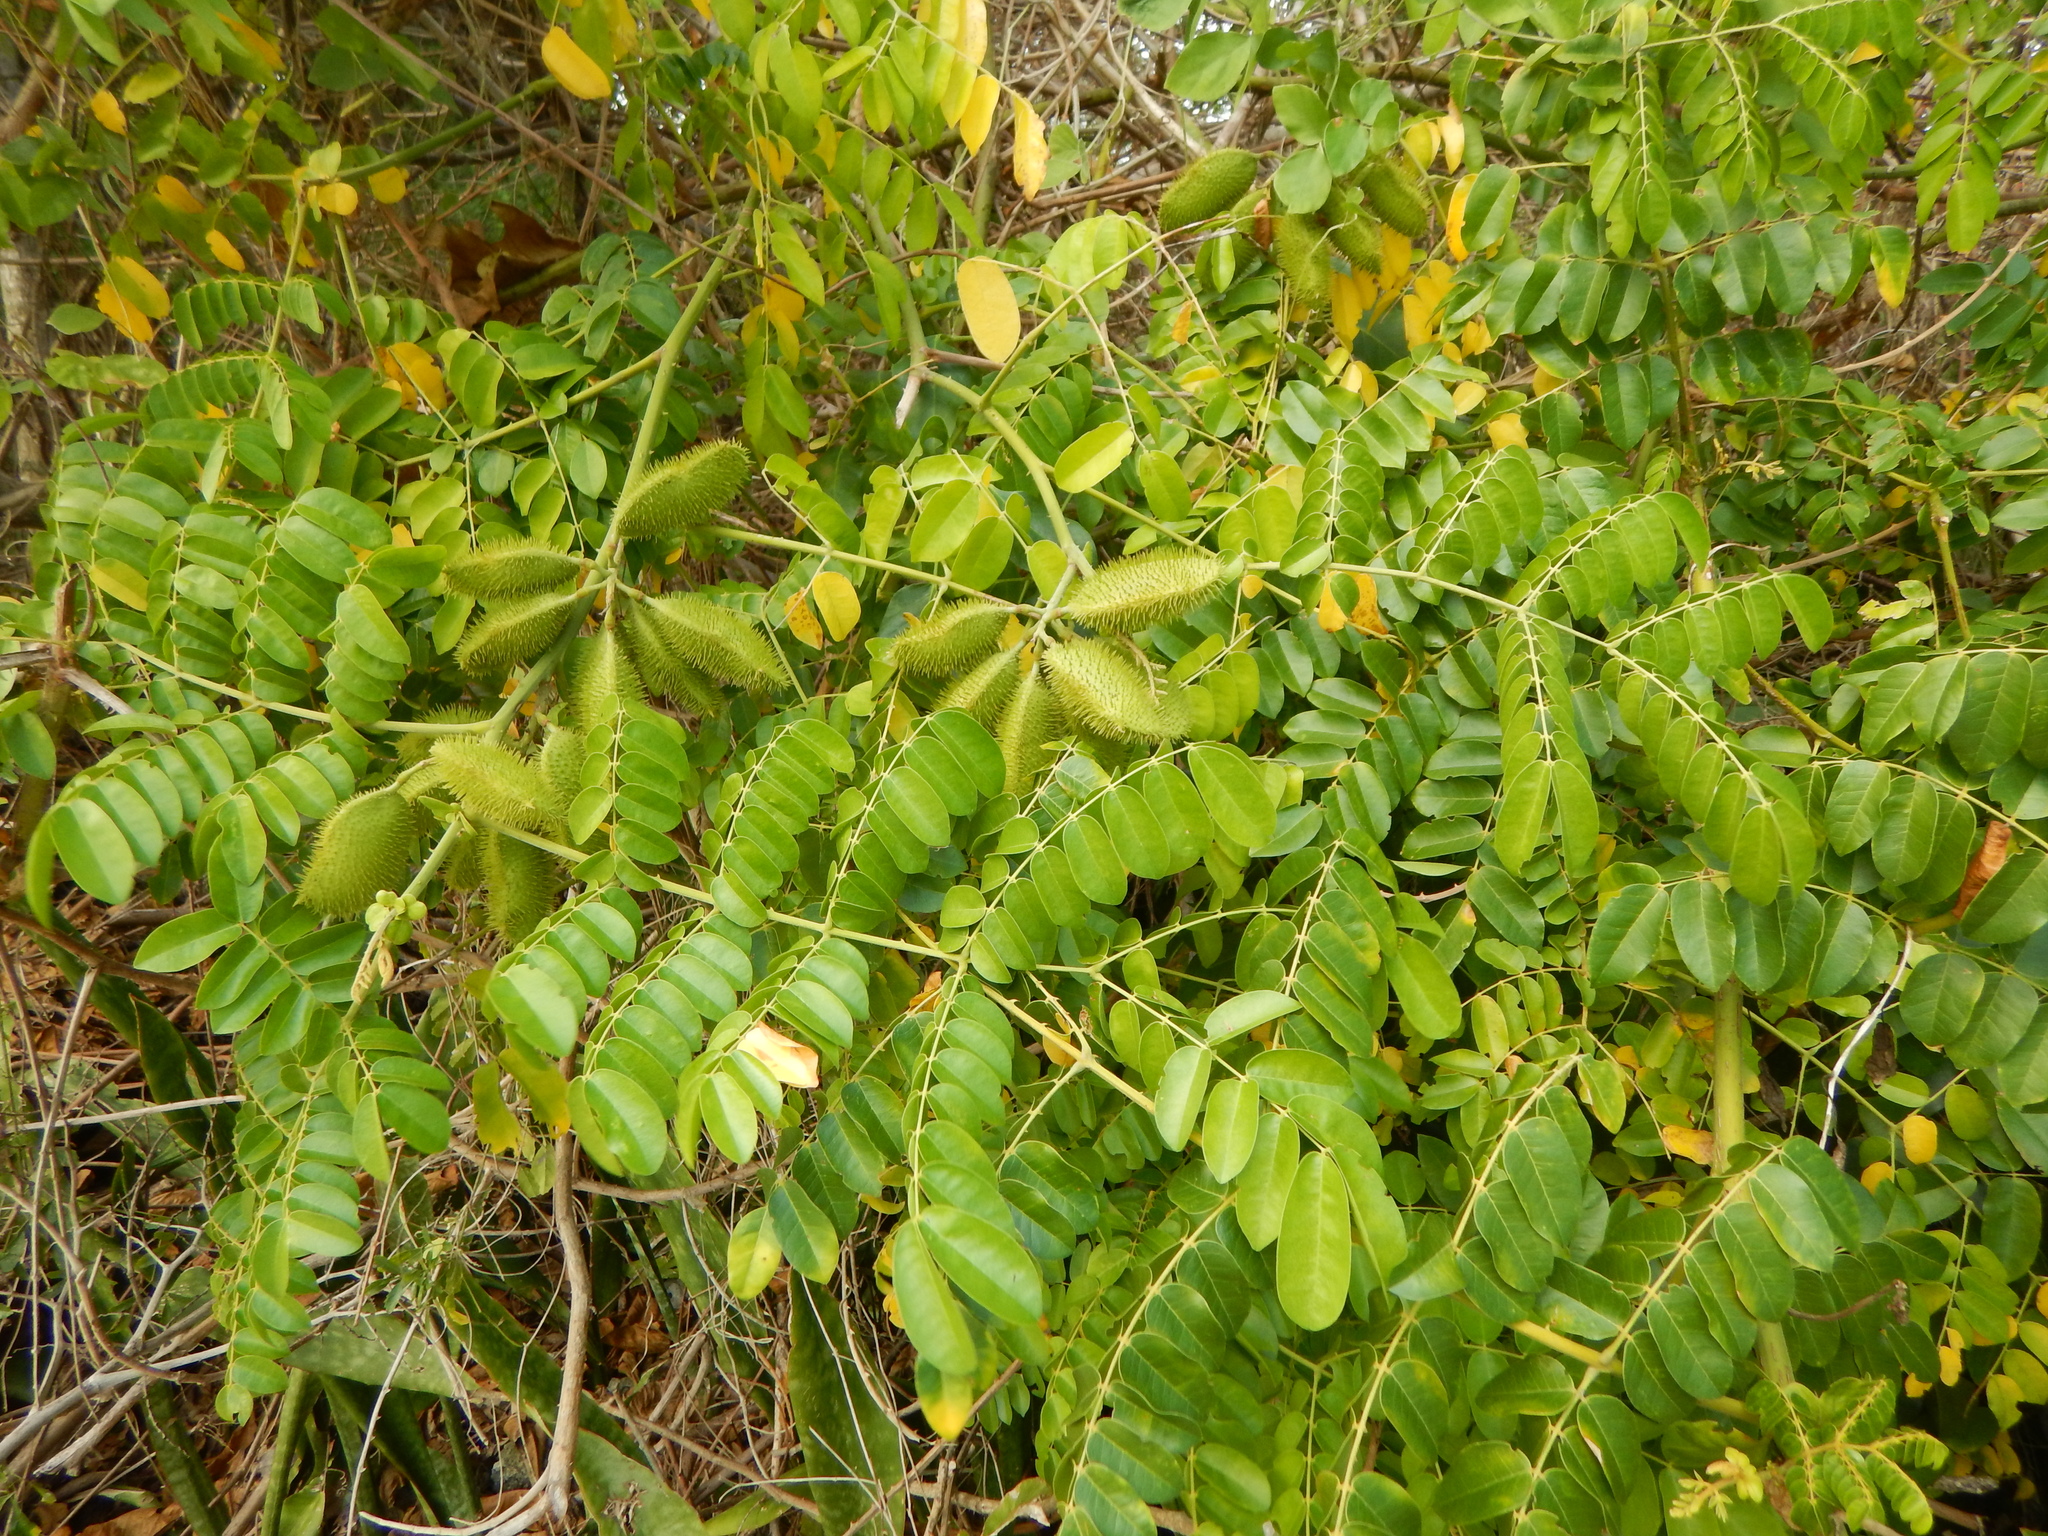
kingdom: Plantae
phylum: Tracheophyta
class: Magnoliopsida
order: Fabales
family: Fabaceae
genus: Guilandina
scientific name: Guilandina bonduc
